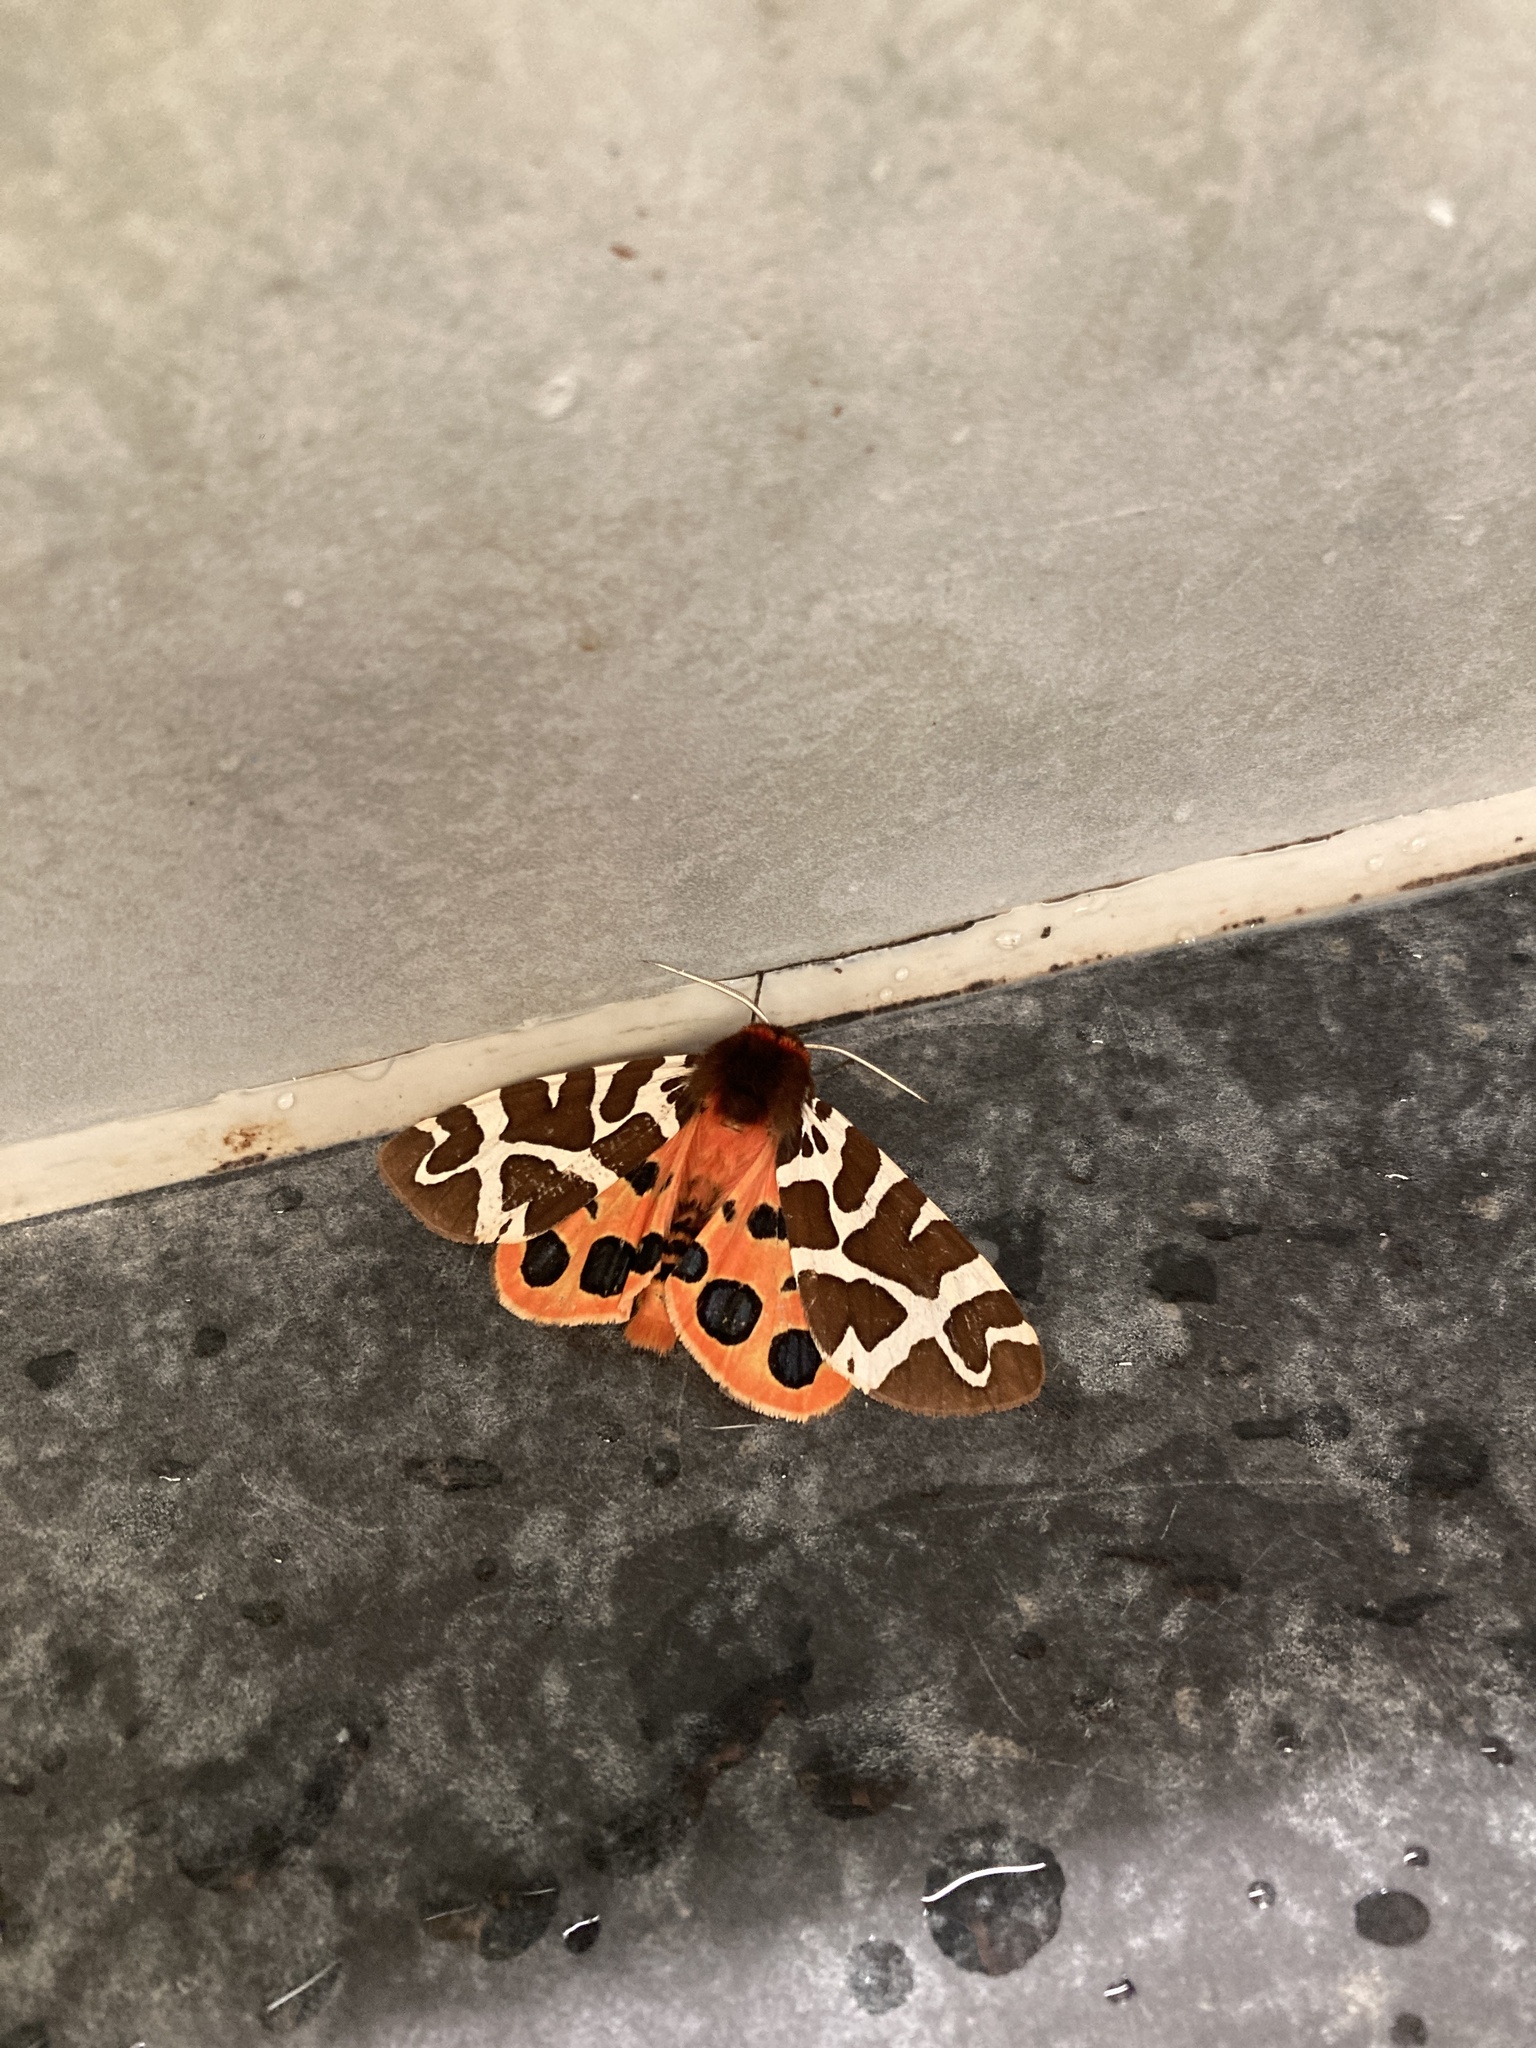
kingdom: Animalia
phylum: Arthropoda
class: Insecta
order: Lepidoptera
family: Erebidae
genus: Arctia
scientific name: Arctia caja
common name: Garden tiger
